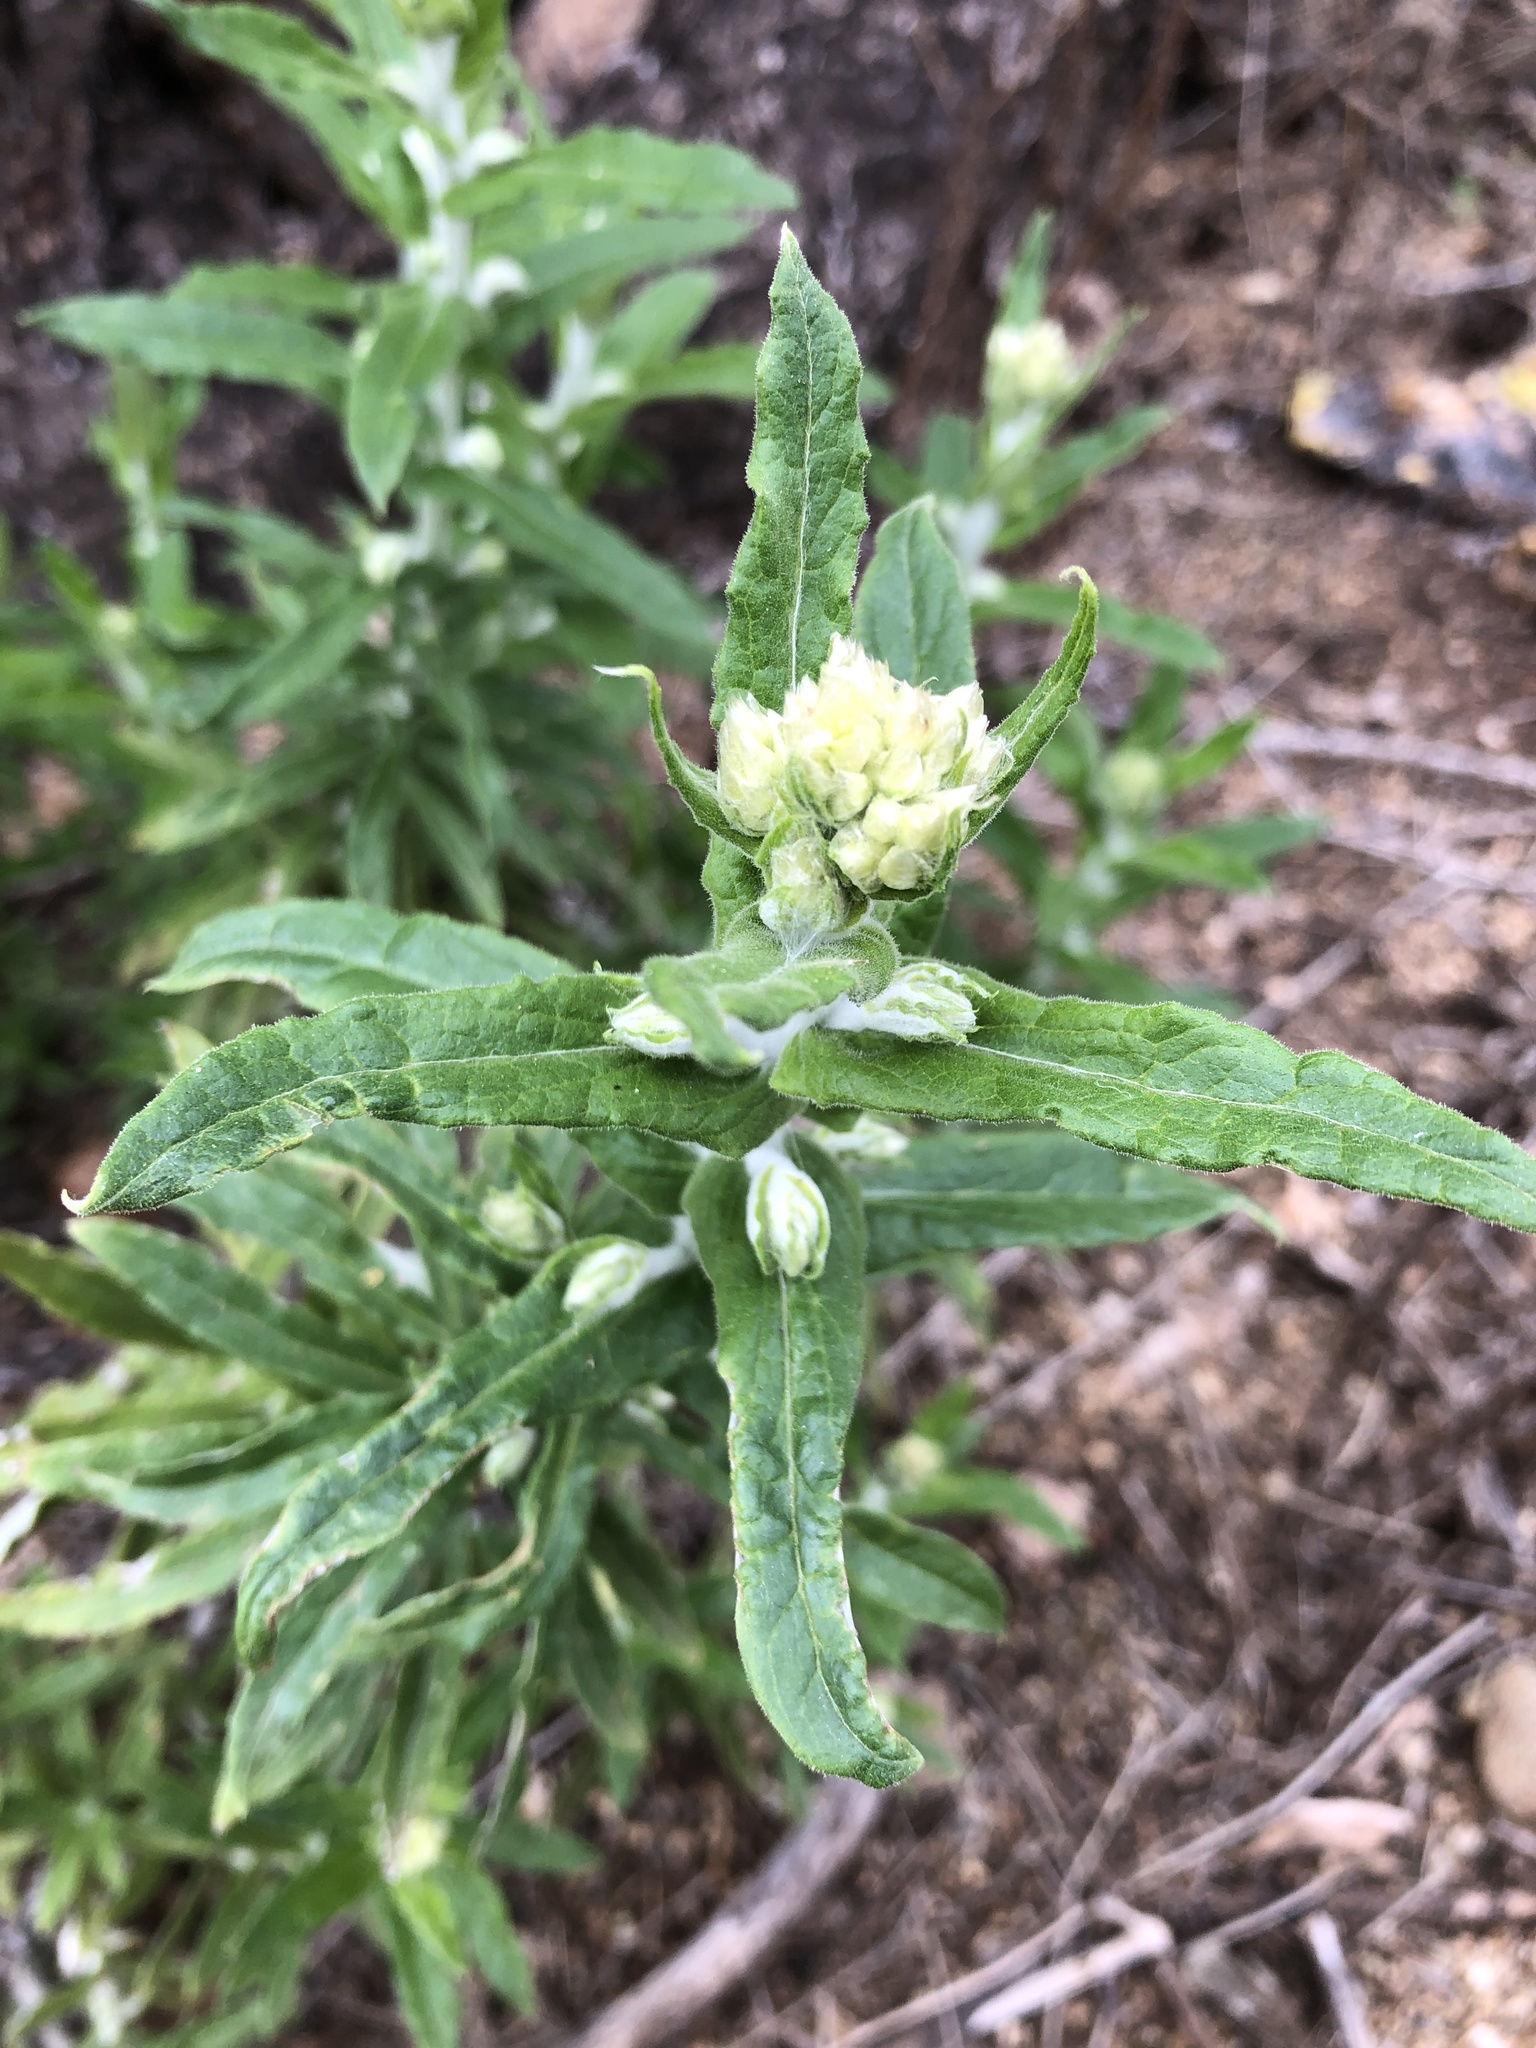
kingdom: Plantae
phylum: Tracheophyta
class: Magnoliopsida
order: Asterales
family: Asteraceae
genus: Pseudognaphalium
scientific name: Pseudognaphalium biolettii
